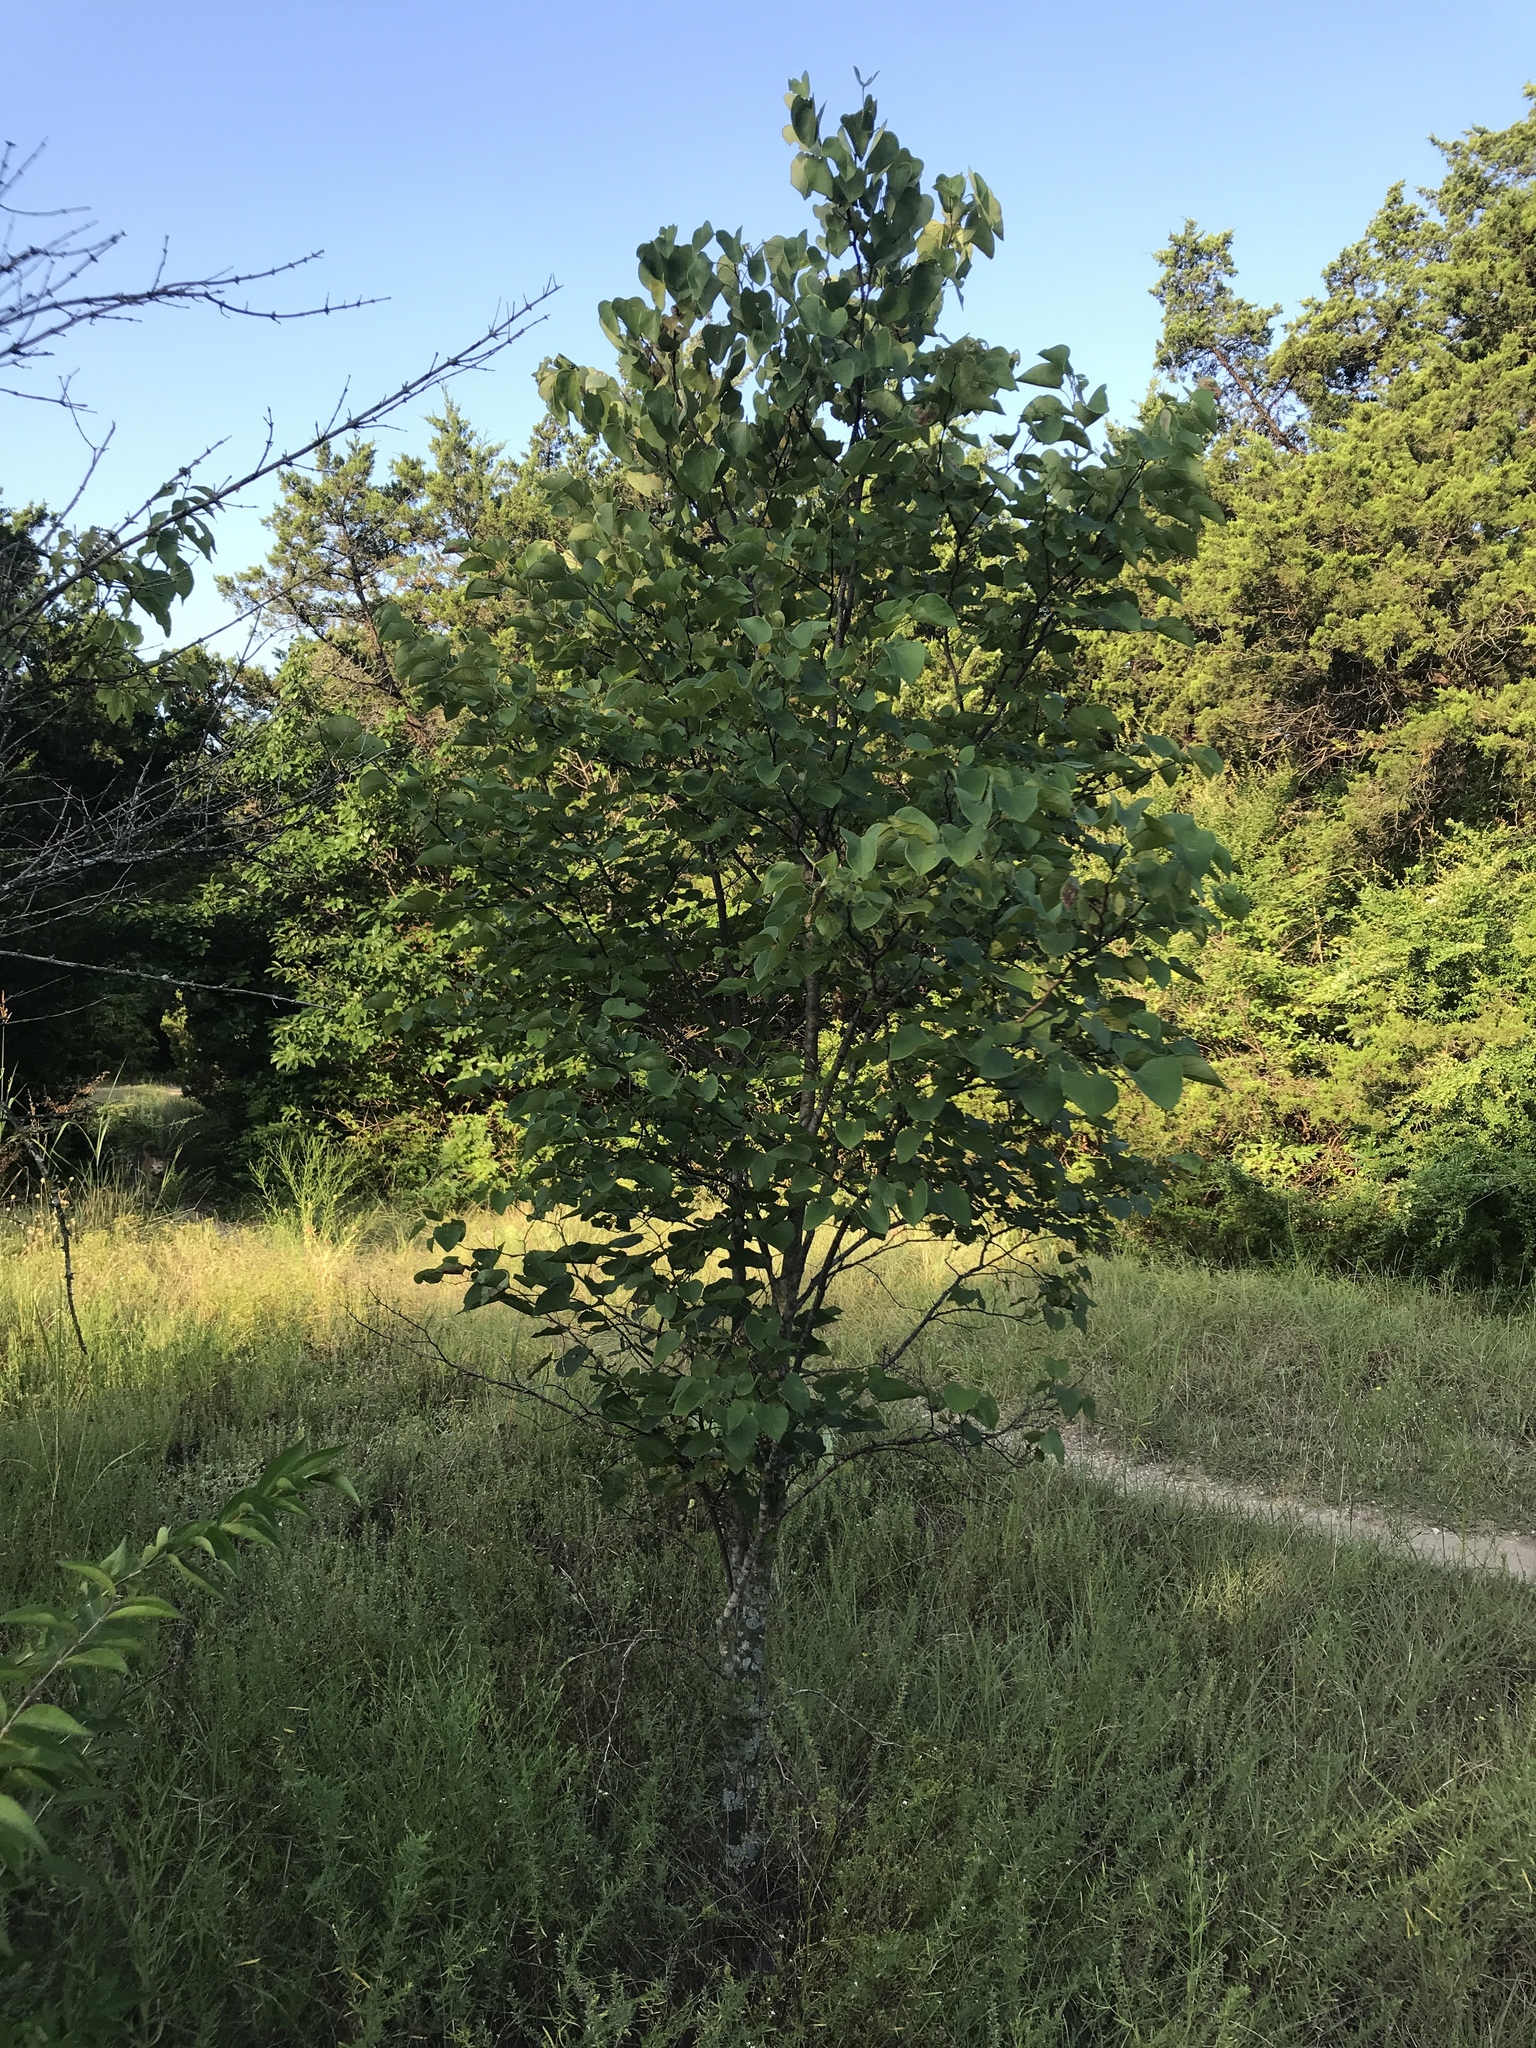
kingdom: Plantae
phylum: Tracheophyta
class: Magnoliopsida
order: Fabales
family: Fabaceae
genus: Cercis
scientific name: Cercis canadensis
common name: Eastern redbud
